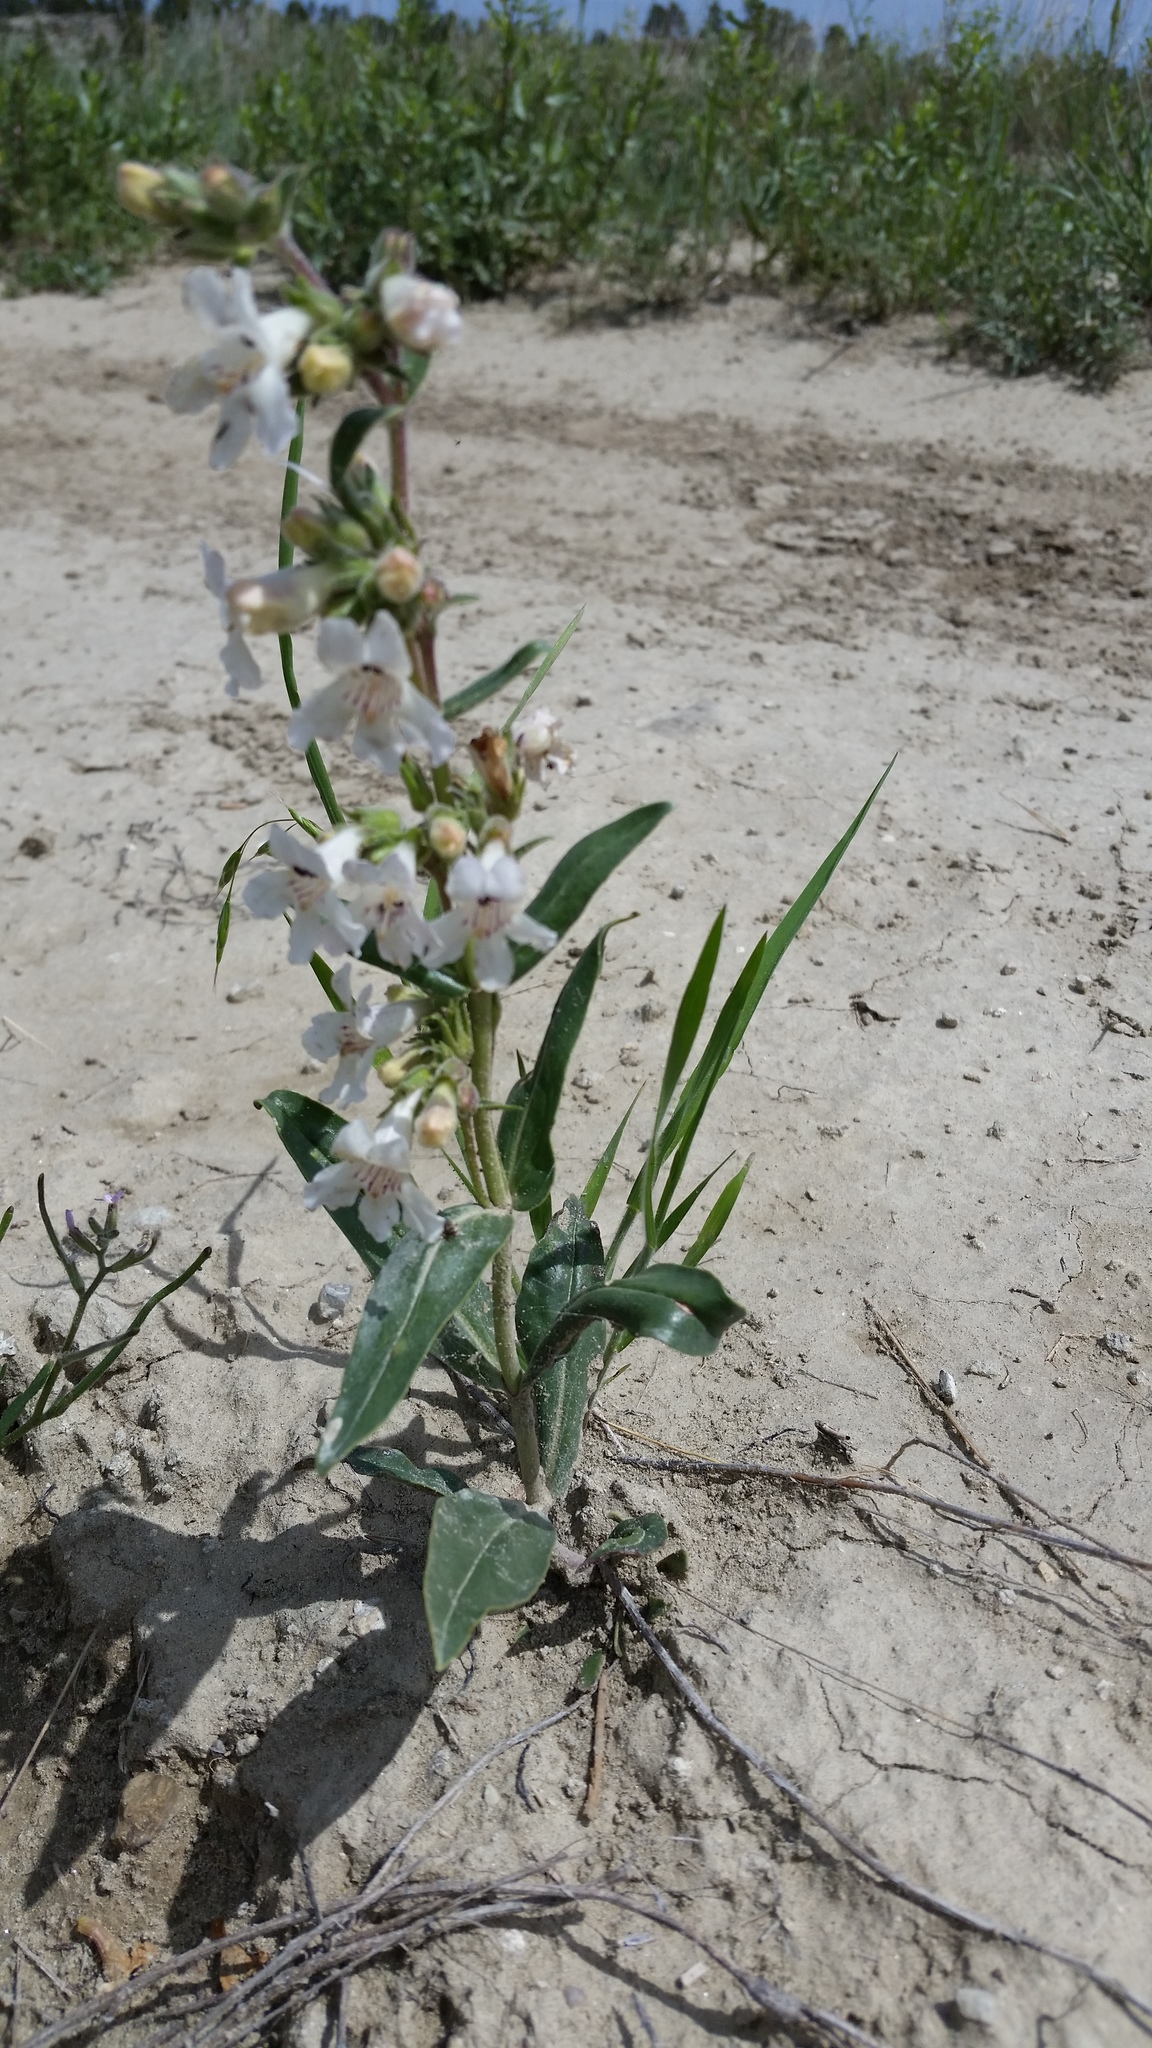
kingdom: Plantae
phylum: Tracheophyta
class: Magnoliopsida
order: Lamiales
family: Plantaginaceae
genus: Penstemon
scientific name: Penstemon albidus
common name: White beardtongue
